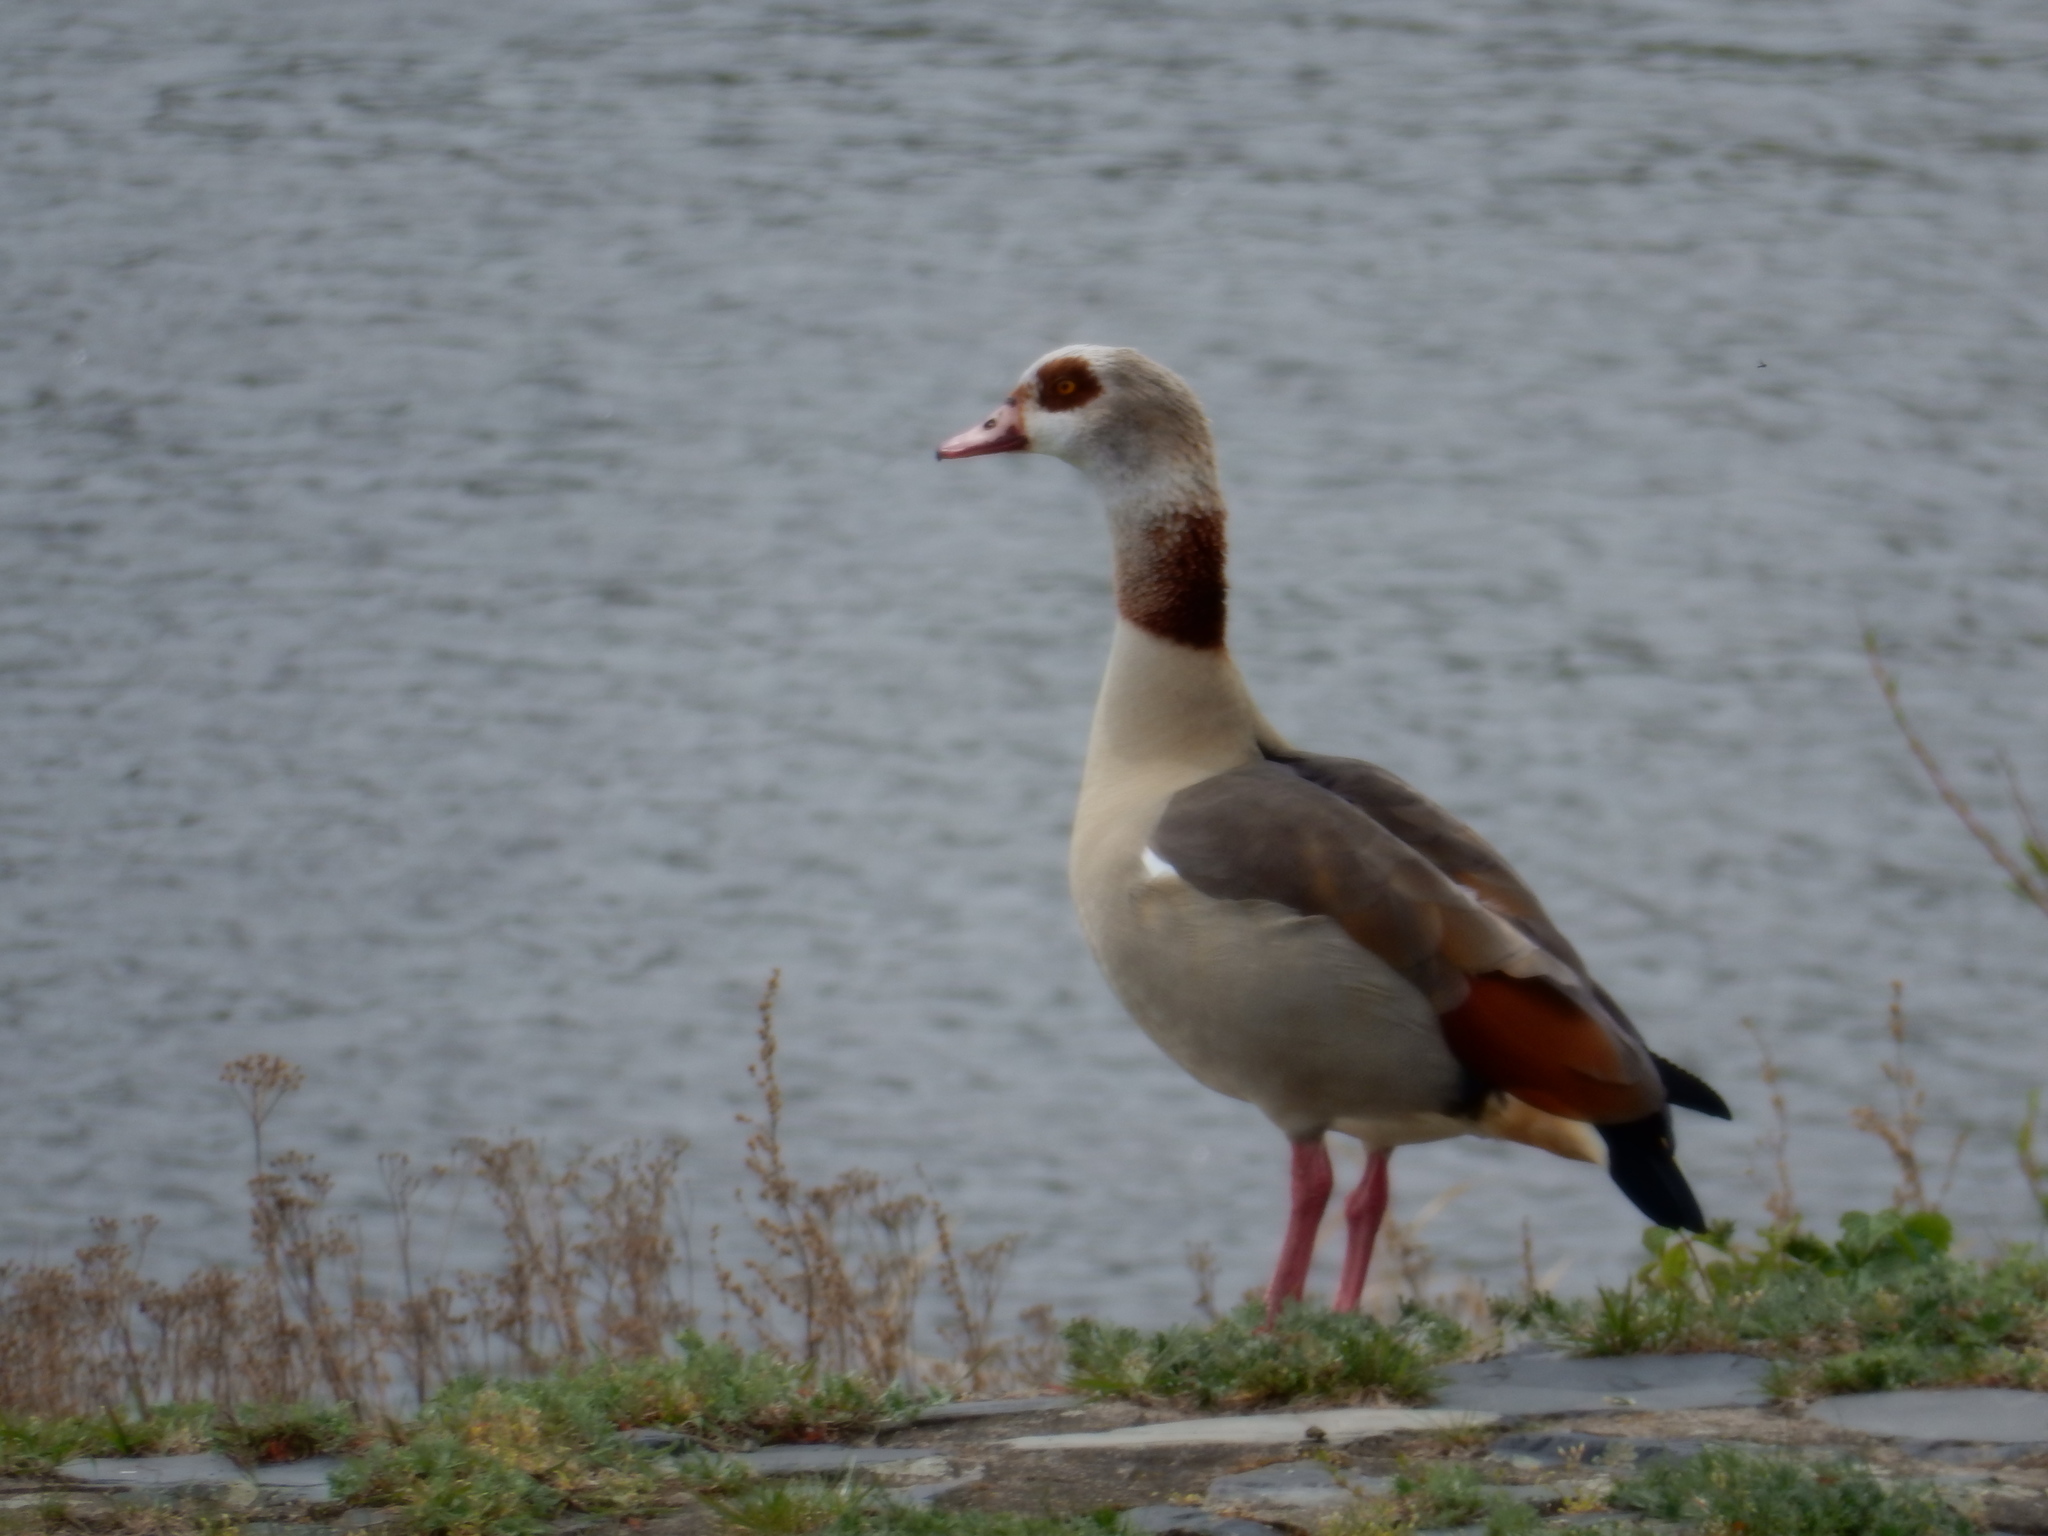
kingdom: Animalia
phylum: Chordata
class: Aves
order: Anseriformes
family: Anatidae
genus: Alopochen
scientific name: Alopochen aegyptiaca
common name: Egyptian goose
